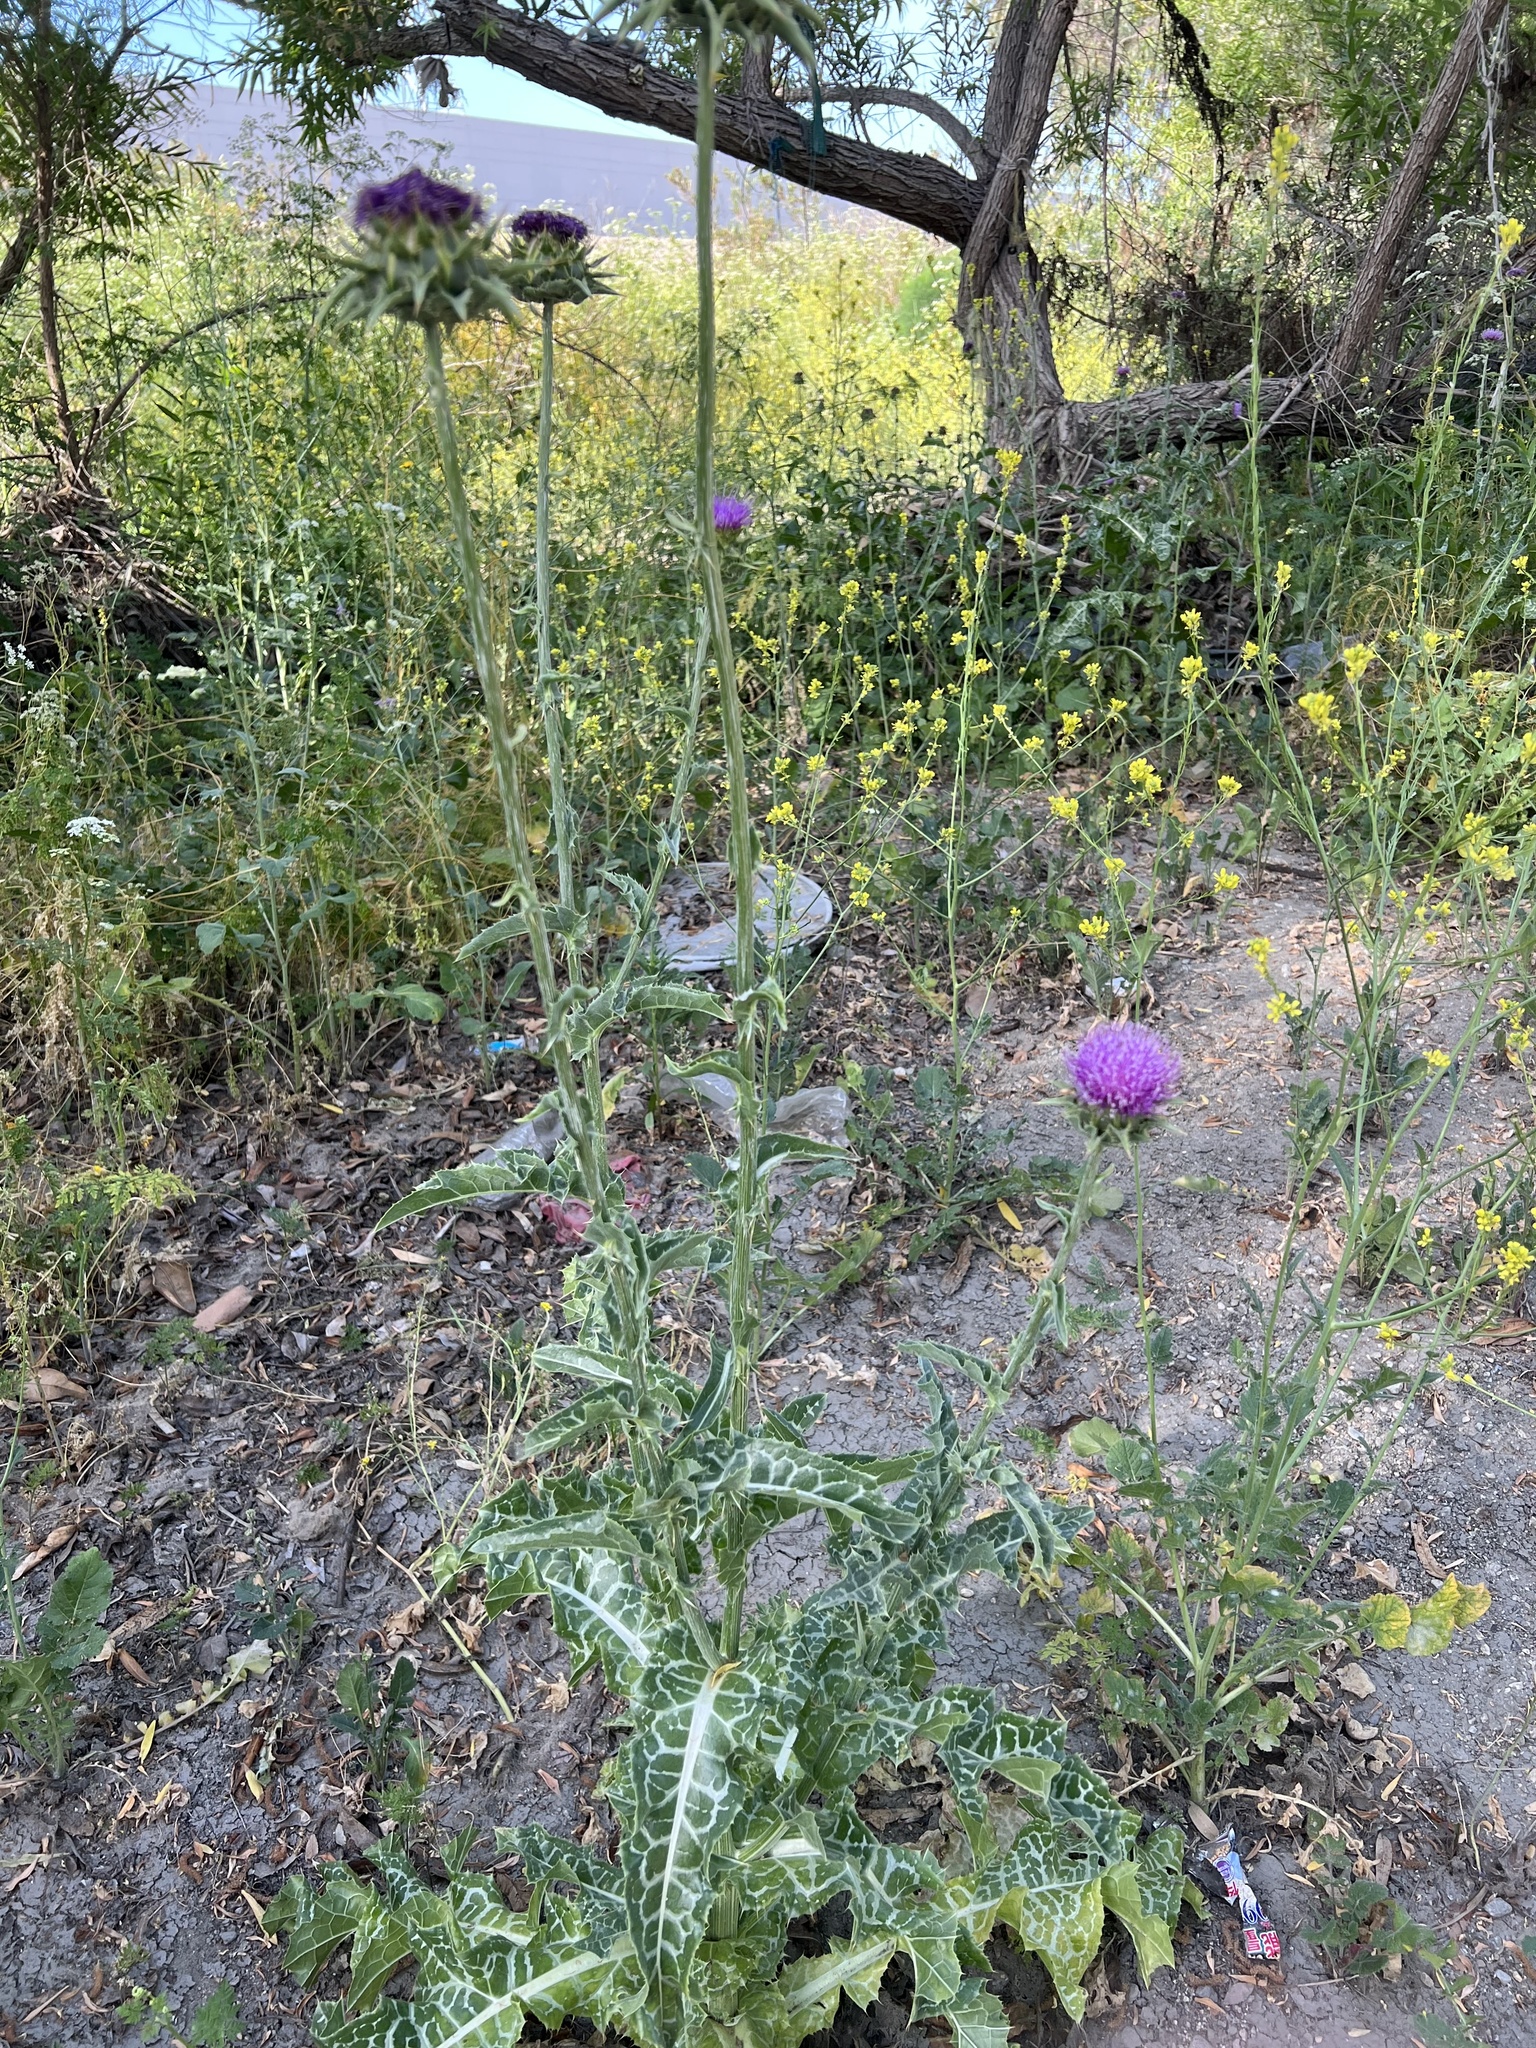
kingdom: Plantae
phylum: Tracheophyta
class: Magnoliopsida
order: Asterales
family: Asteraceae
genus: Silybum
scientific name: Silybum marianum
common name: Milk thistle
